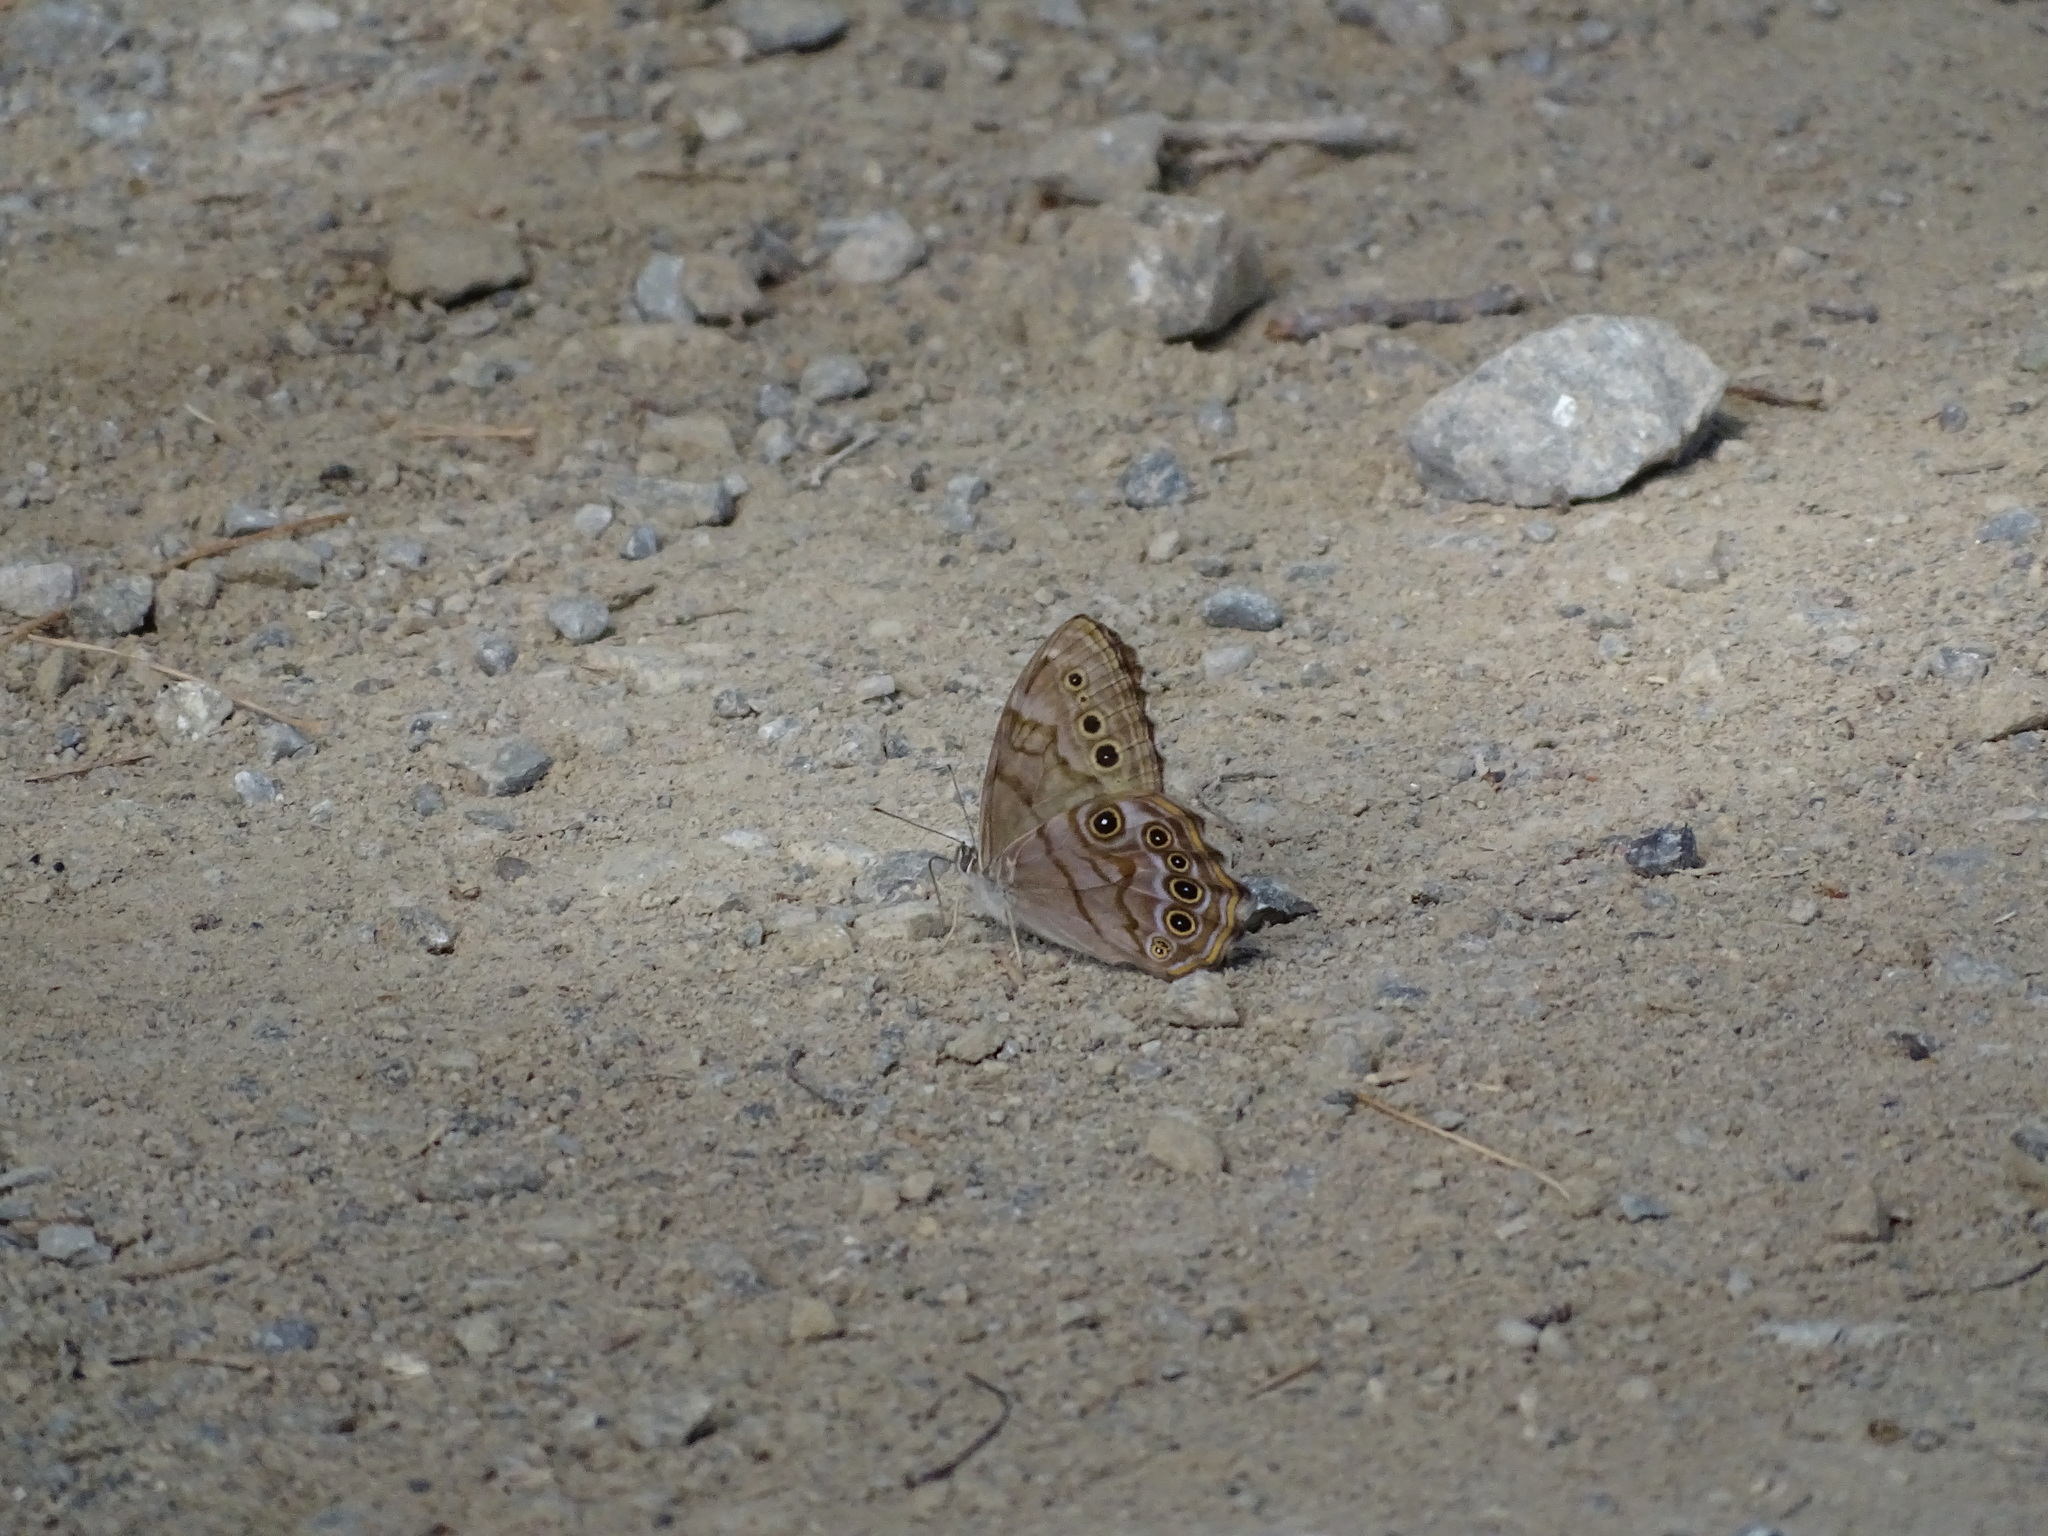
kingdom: Animalia
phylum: Arthropoda
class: Insecta
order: Lepidoptera
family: Nymphalidae
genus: Lethe
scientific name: Lethe anthedon
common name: Northern pearly-eye
